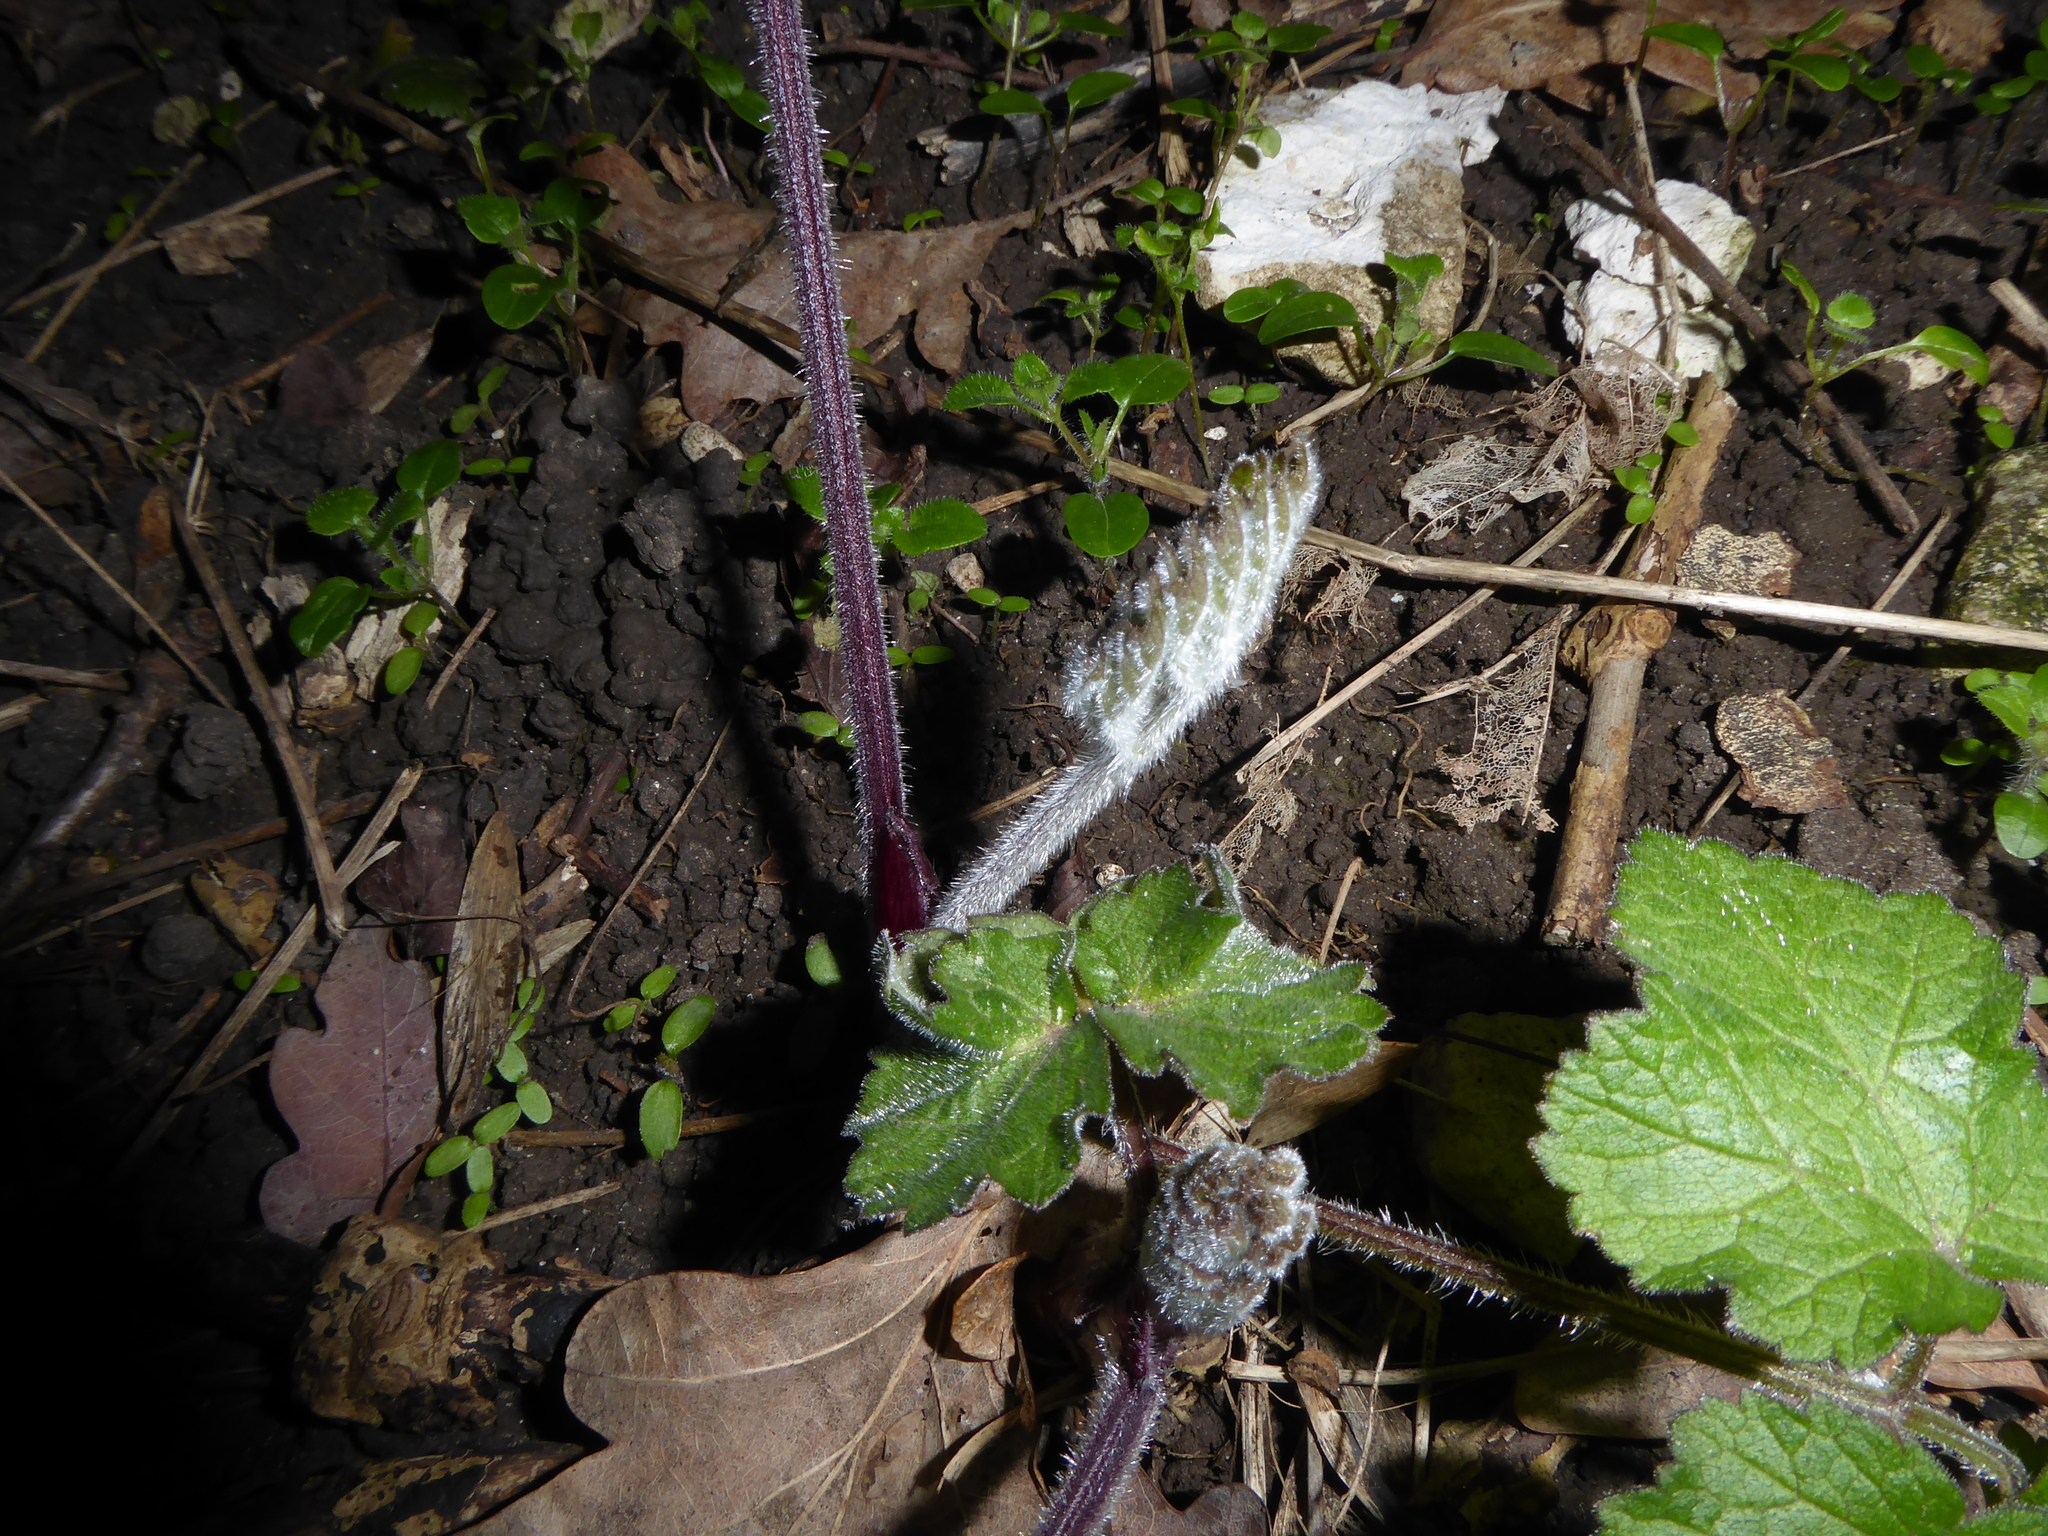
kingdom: Plantae
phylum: Tracheophyta
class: Magnoliopsida
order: Apiales
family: Apiaceae
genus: Heracleum
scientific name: Heracleum sphondylium
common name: Hogweed
